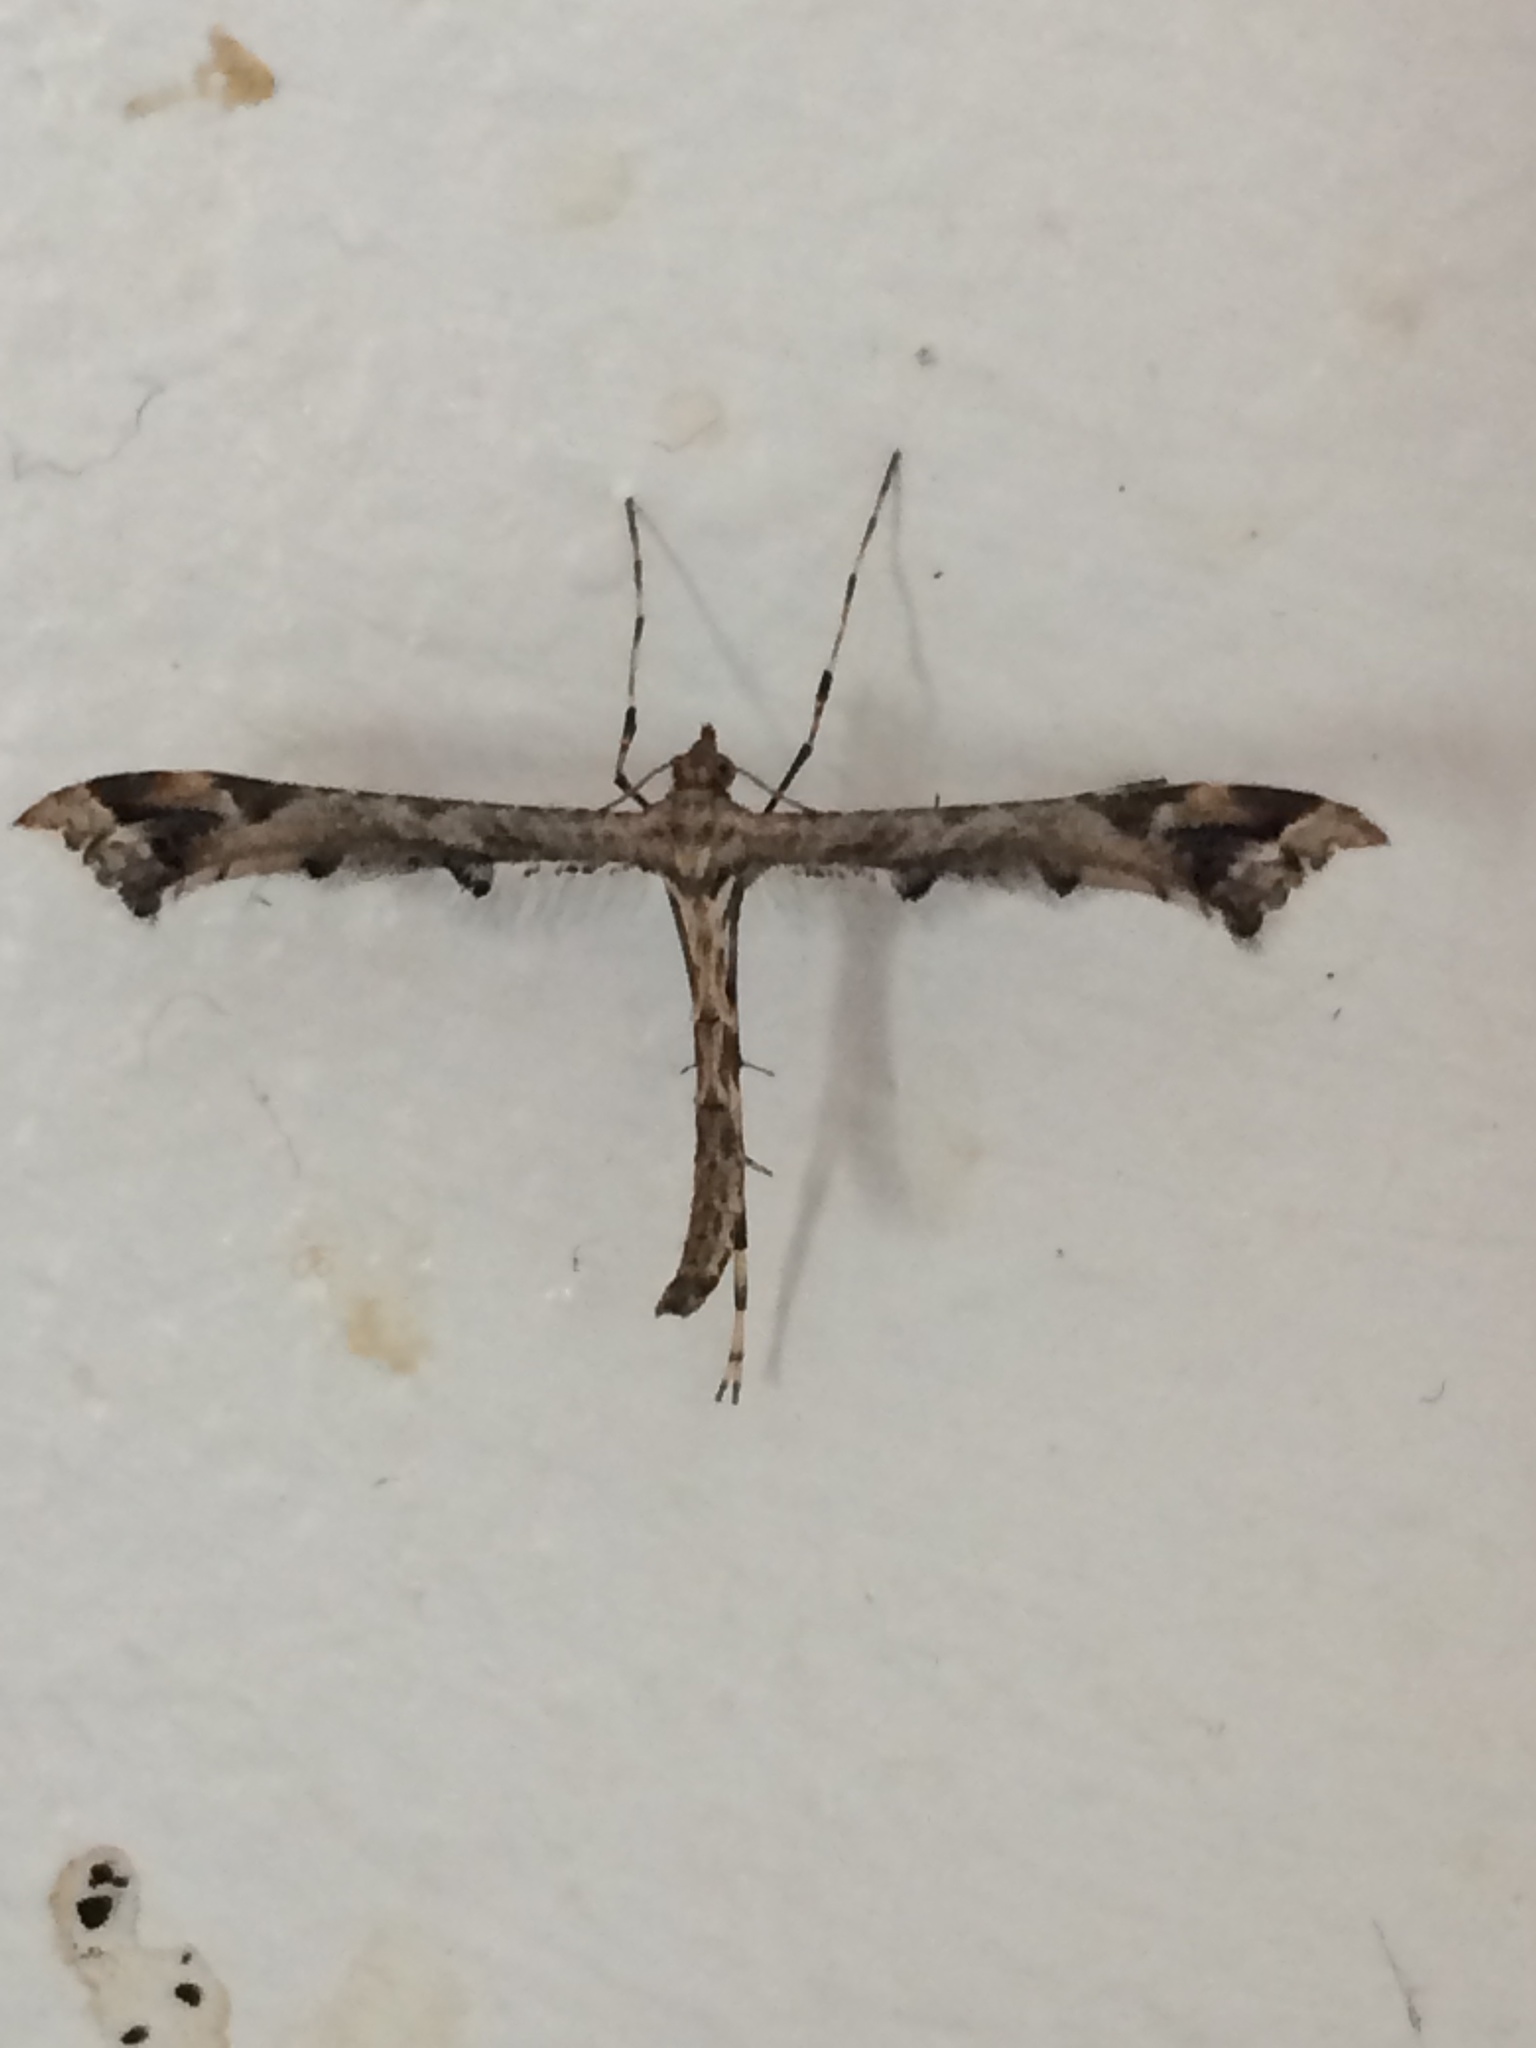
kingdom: Animalia
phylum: Arthropoda
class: Insecta
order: Lepidoptera
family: Pterophoridae
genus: Amblyptilia
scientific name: Amblyptilia acanthadactyla
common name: Beautiful plume
